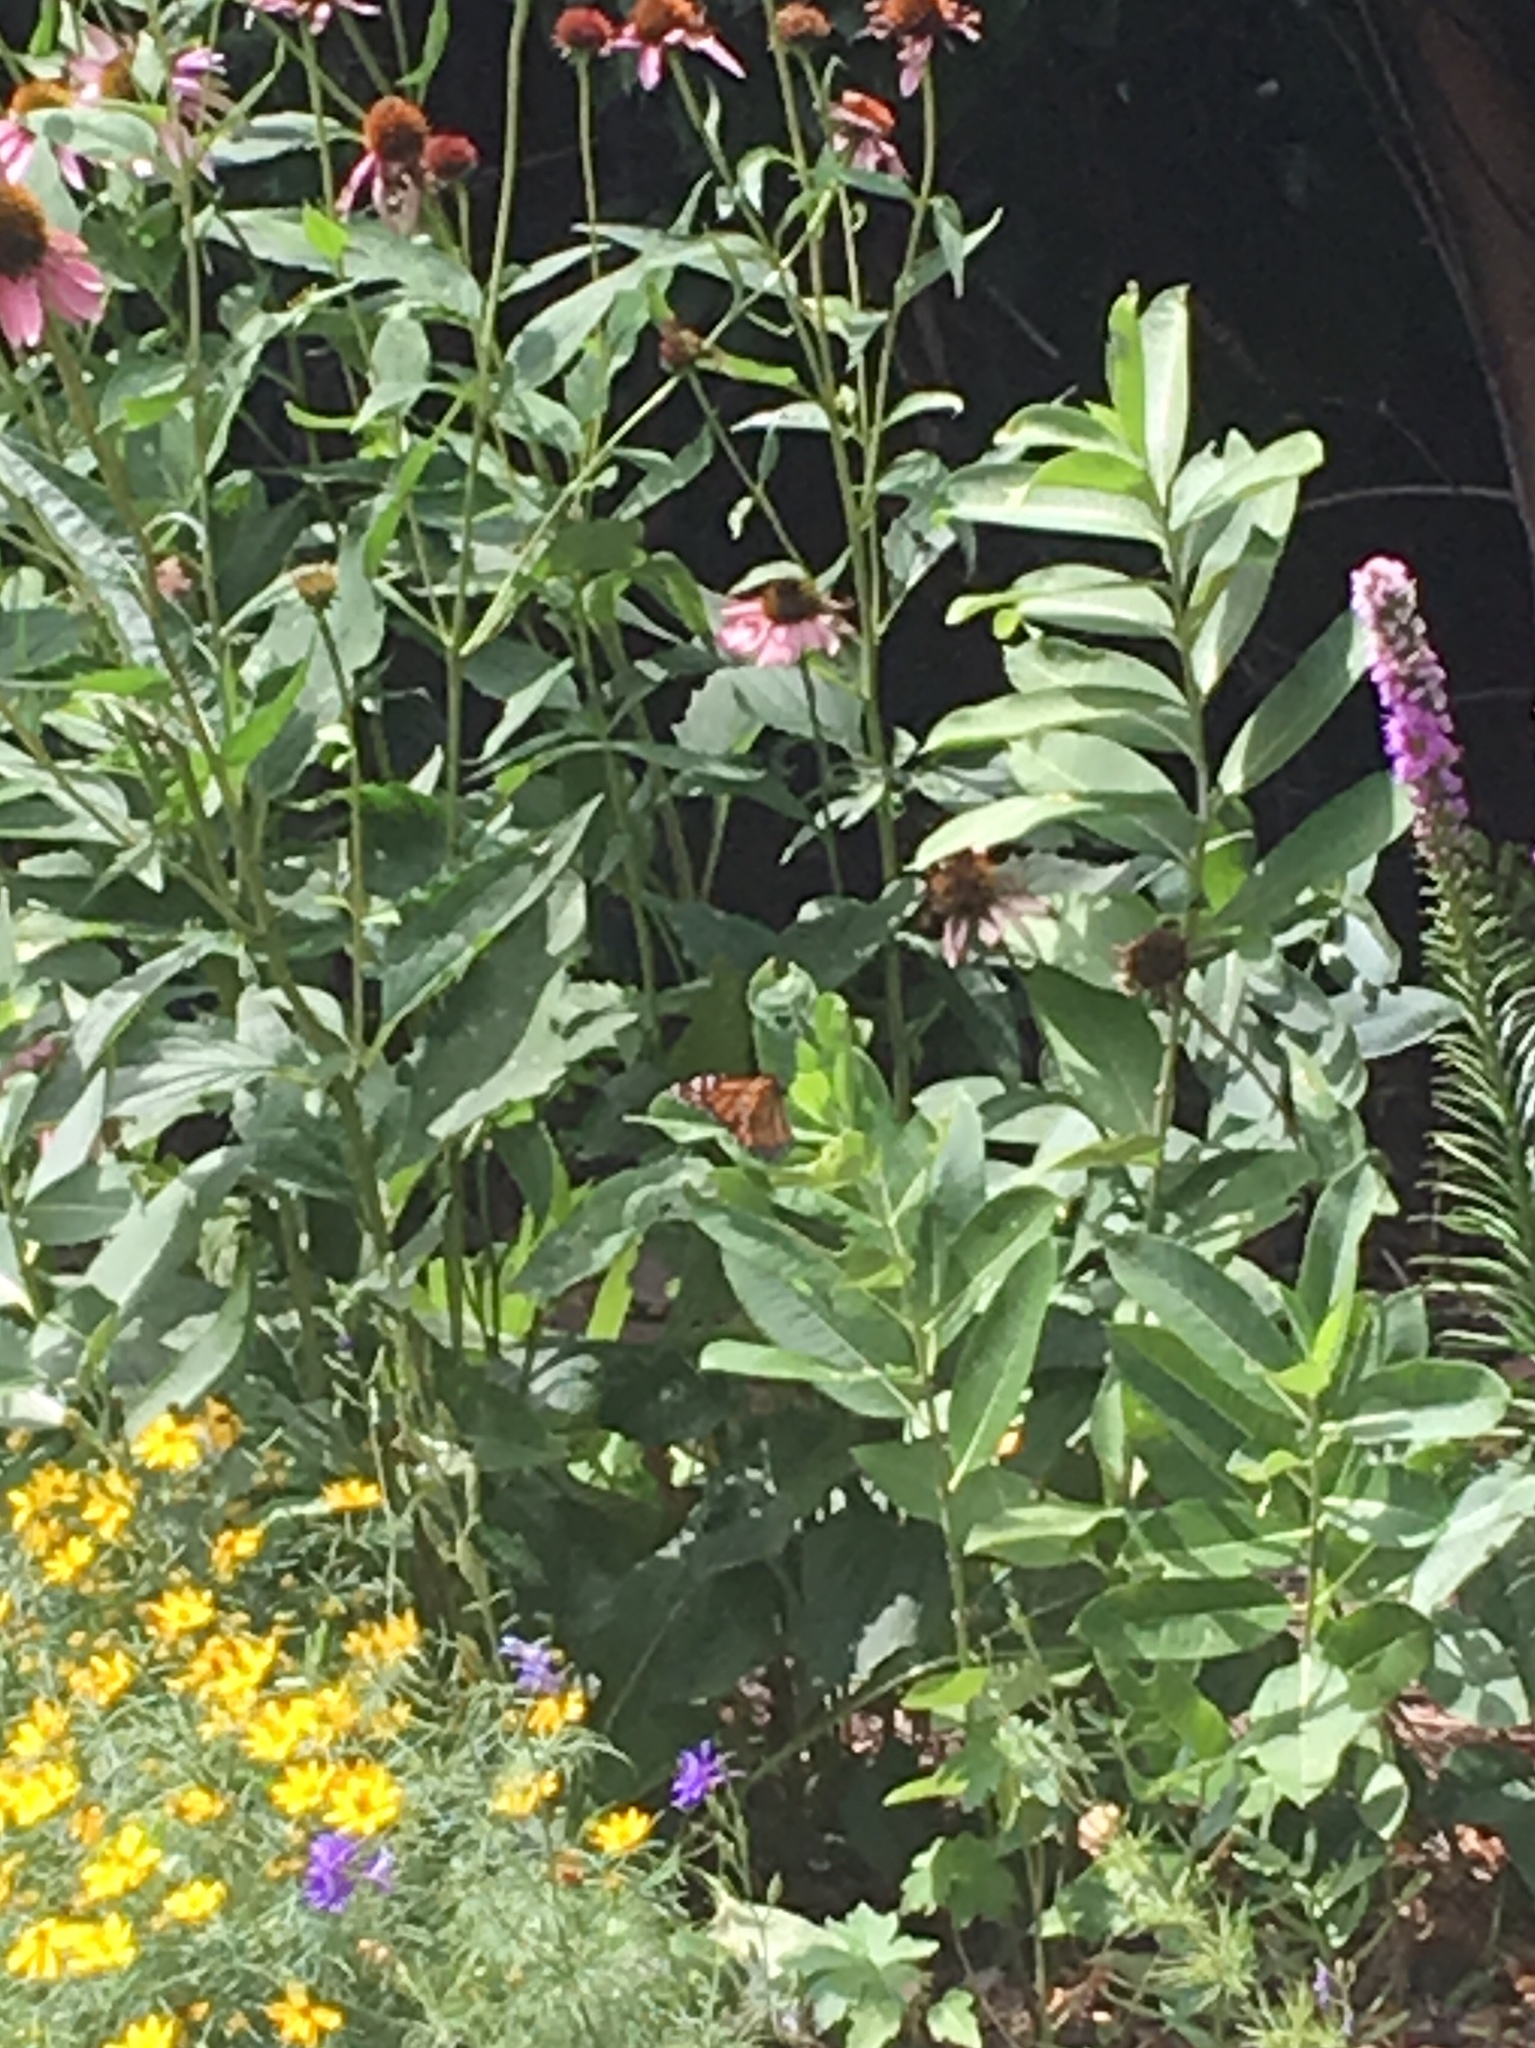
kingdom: Animalia
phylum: Arthropoda
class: Insecta
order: Lepidoptera
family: Nymphalidae
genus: Danaus
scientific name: Danaus plexippus
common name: Monarch
